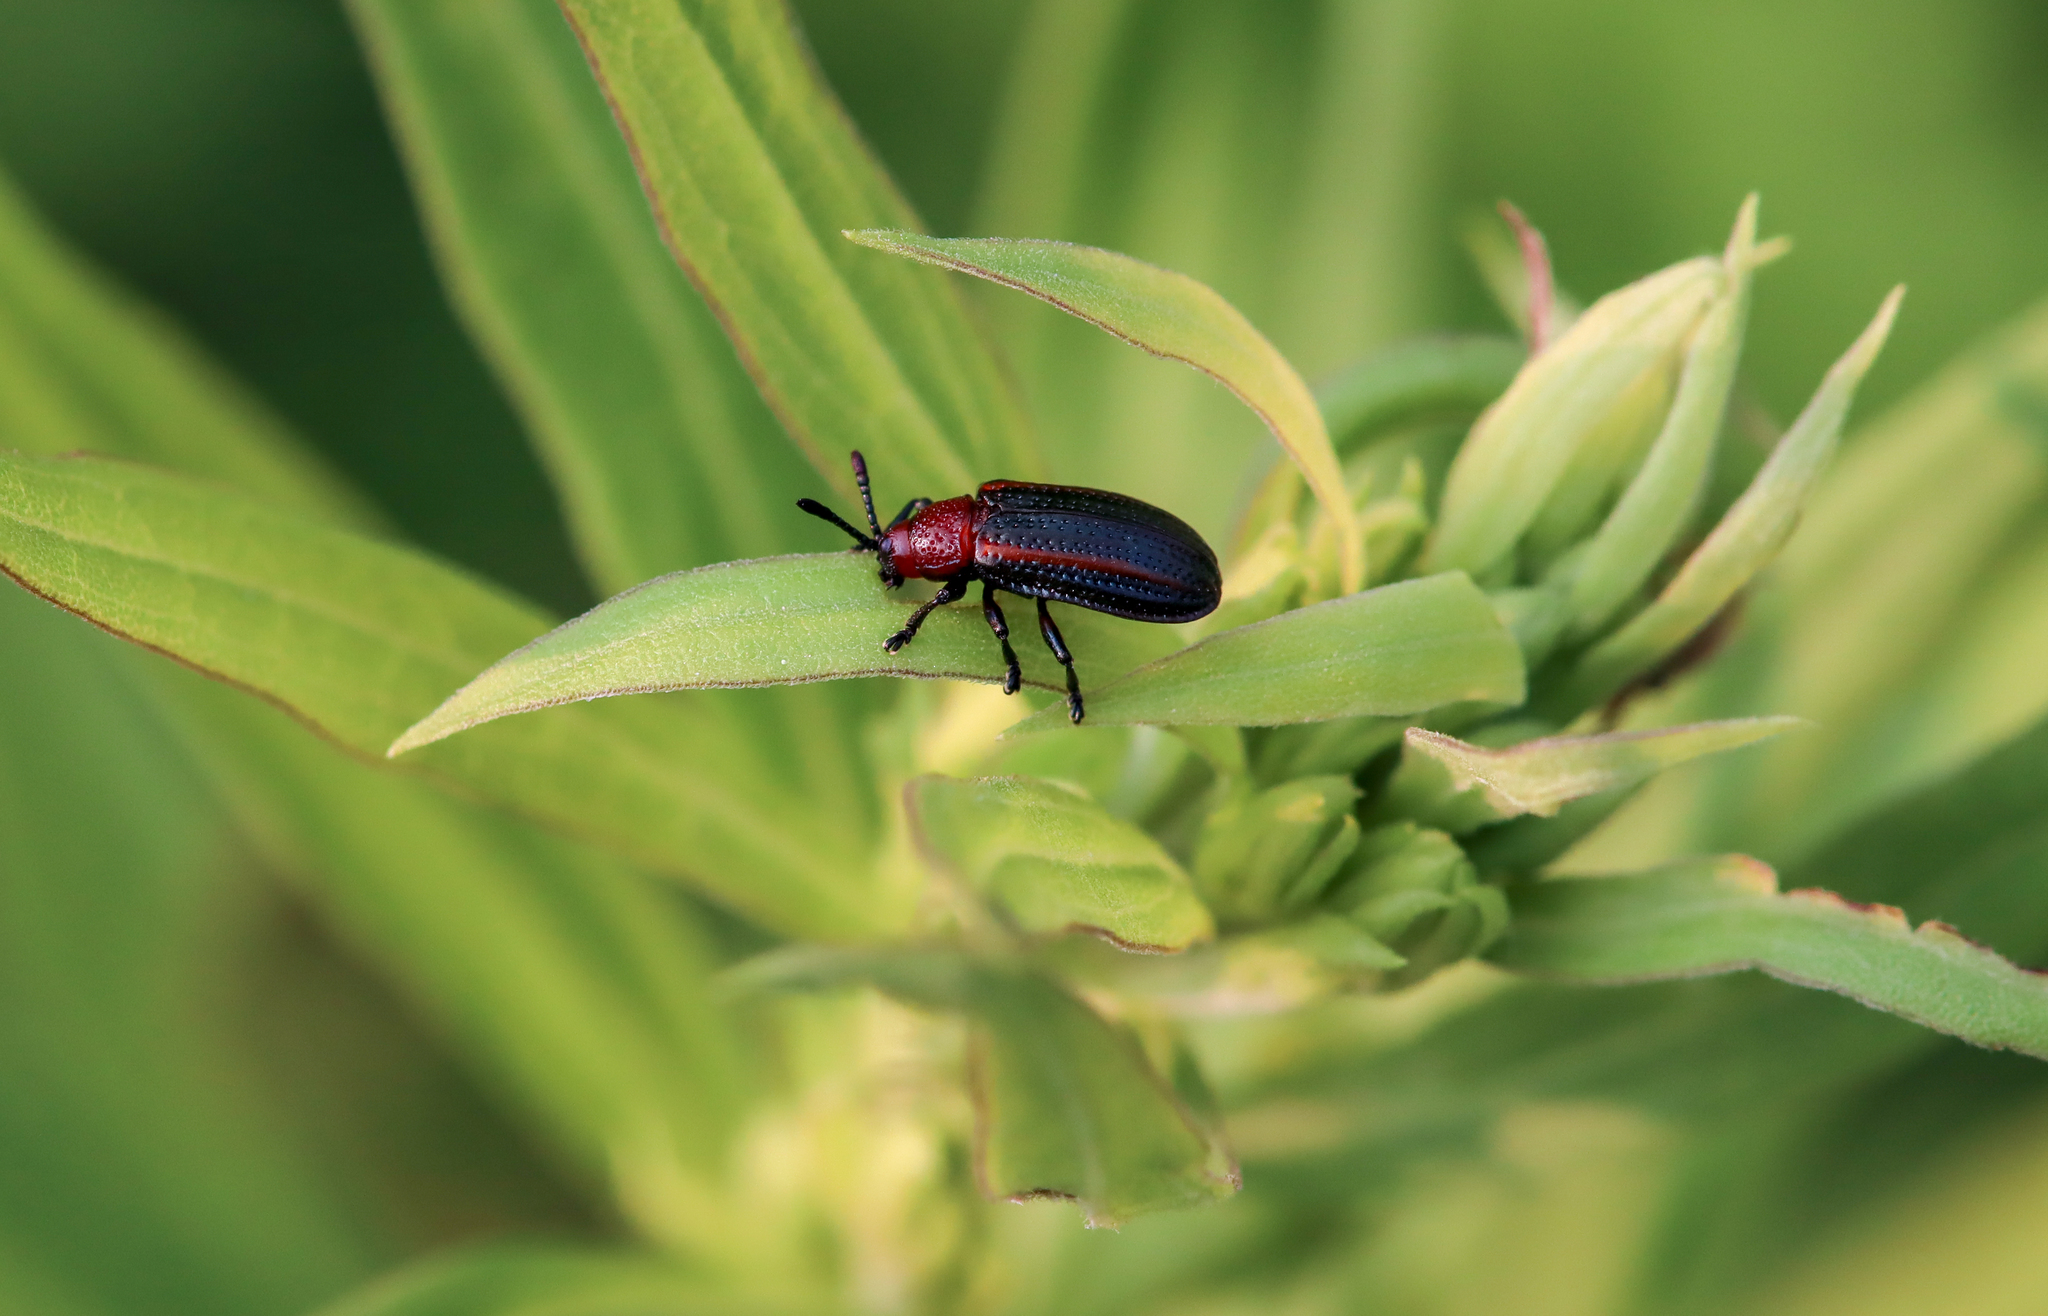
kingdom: Animalia
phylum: Arthropoda
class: Insecta
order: Coleoptera
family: Chrysomelidae
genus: Microrhopala
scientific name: Microrhopala vittata
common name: Goldenrod leaf miner beetle
